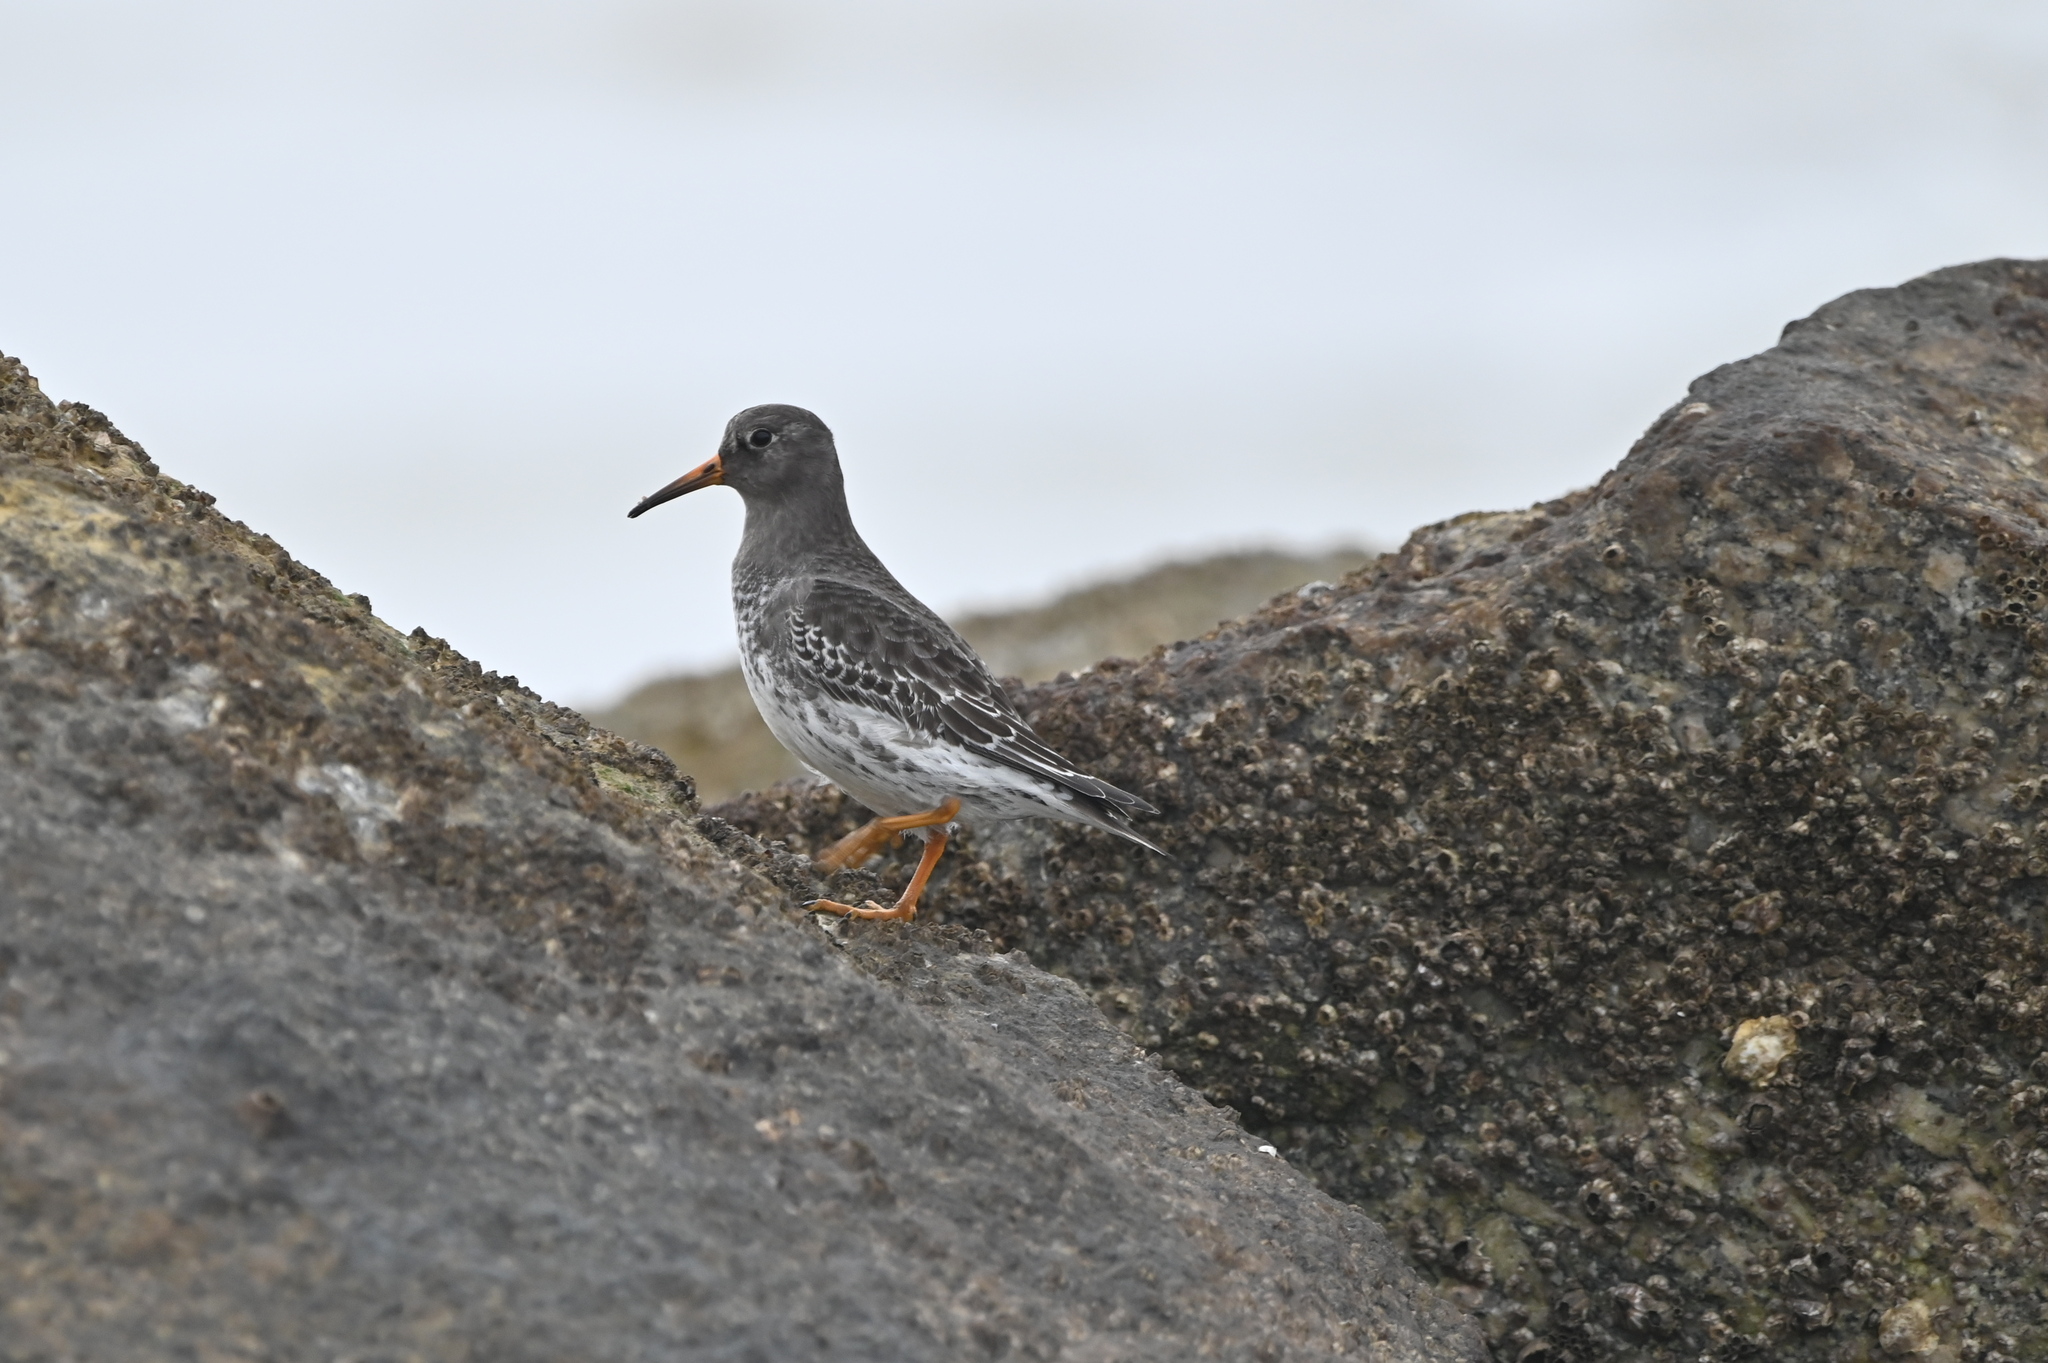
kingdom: Animalia
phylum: Chordata
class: Aves
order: Charadriiformes
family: Scolopacidae
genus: Calidris
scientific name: Calidris maritima
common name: Purple sandpiper
